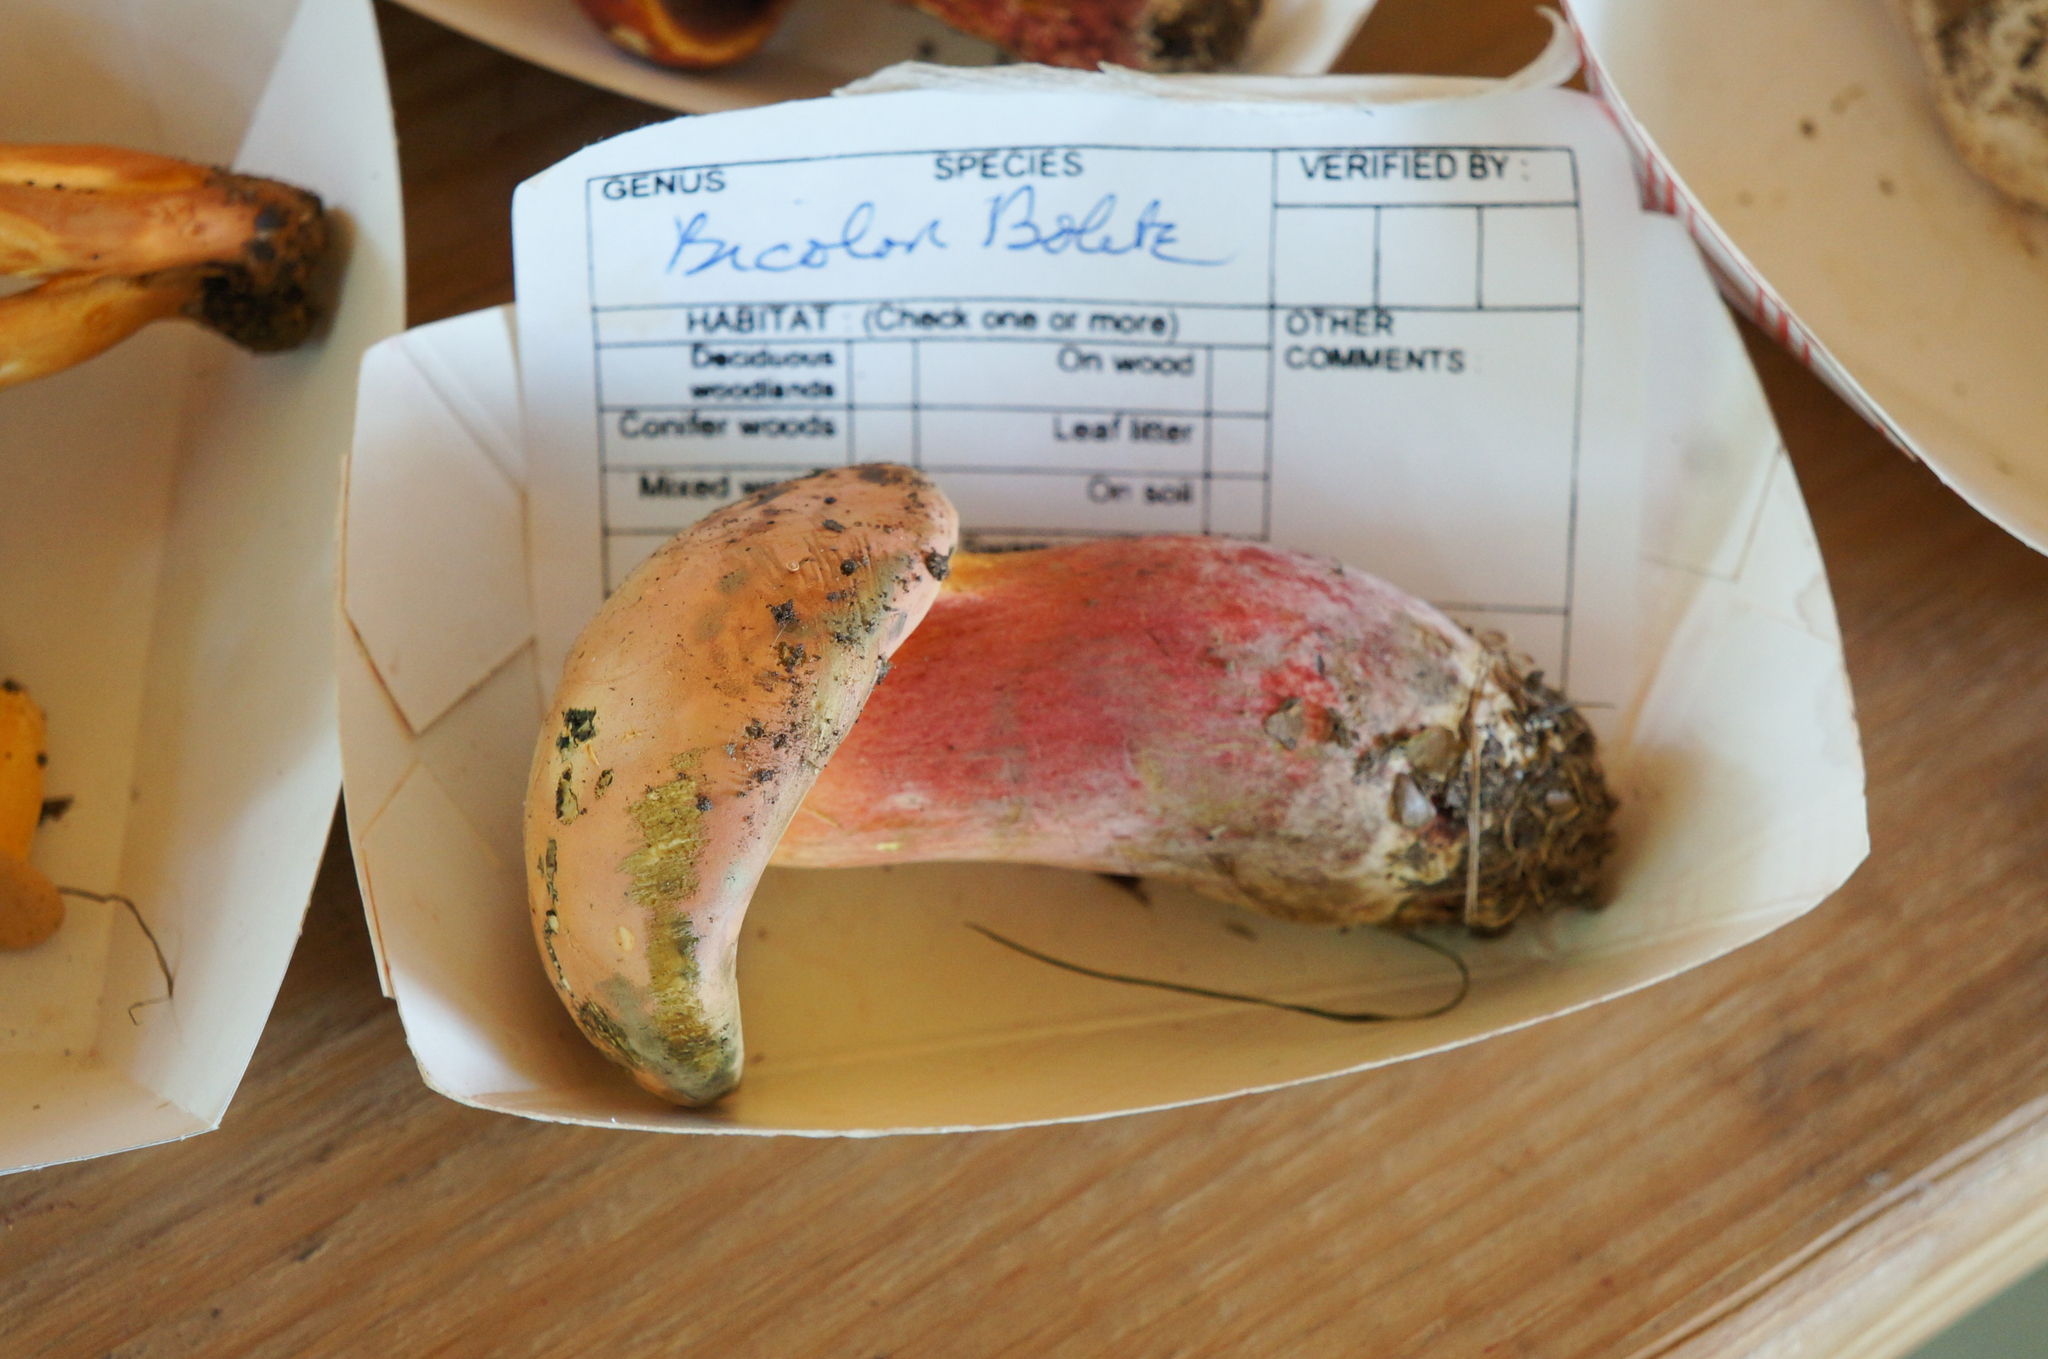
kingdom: Fungi
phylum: Basidiomycota
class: Agaricomycetes
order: Boletales
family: Boletaceae
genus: Baorangia
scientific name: Baorangia bicolor
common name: Two-colored bolete
